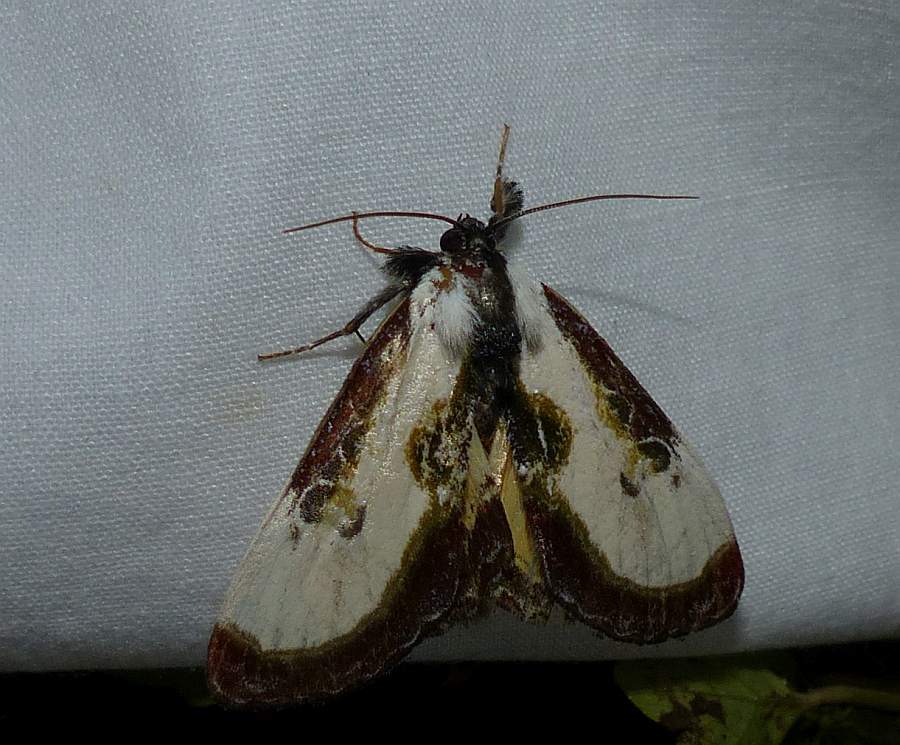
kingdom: Animalia
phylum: Arthropoda
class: Insecta
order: Lepidoptera
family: Noctuidae
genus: Eudryas
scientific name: Eudryas grata
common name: Beautiful wood-nymph
